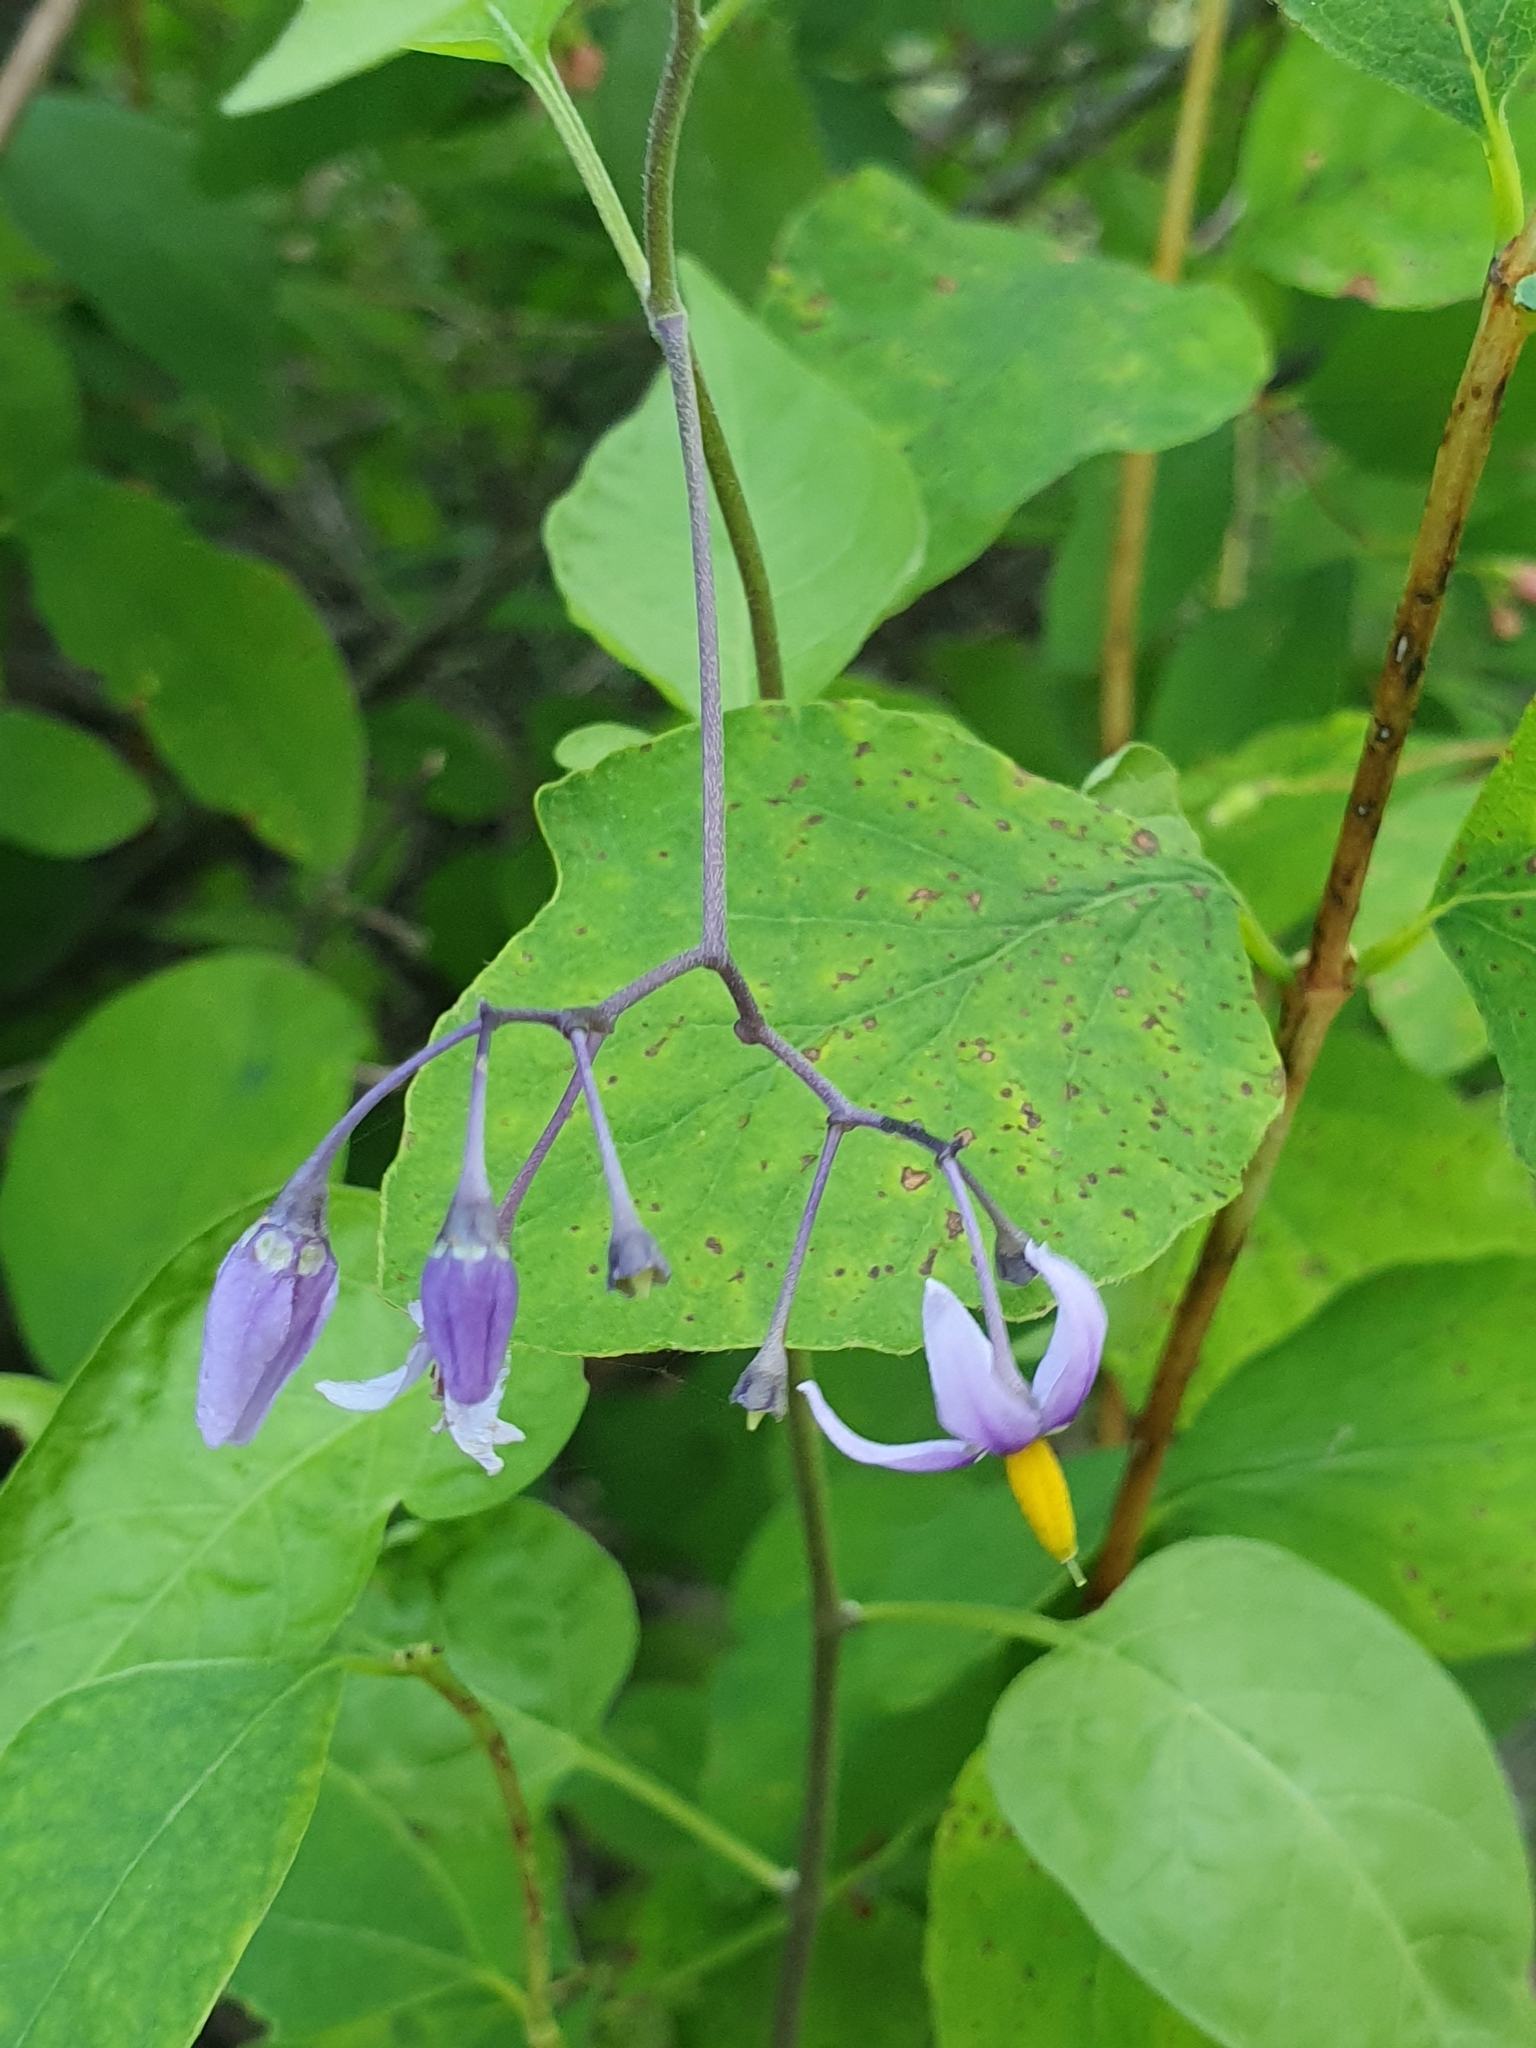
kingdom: Plantae
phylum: Tracheophyta
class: Magnoliopsida
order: Solanales
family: Solanaceae
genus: Solanum
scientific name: Solanum dulcamara
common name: Climbing nightshade
